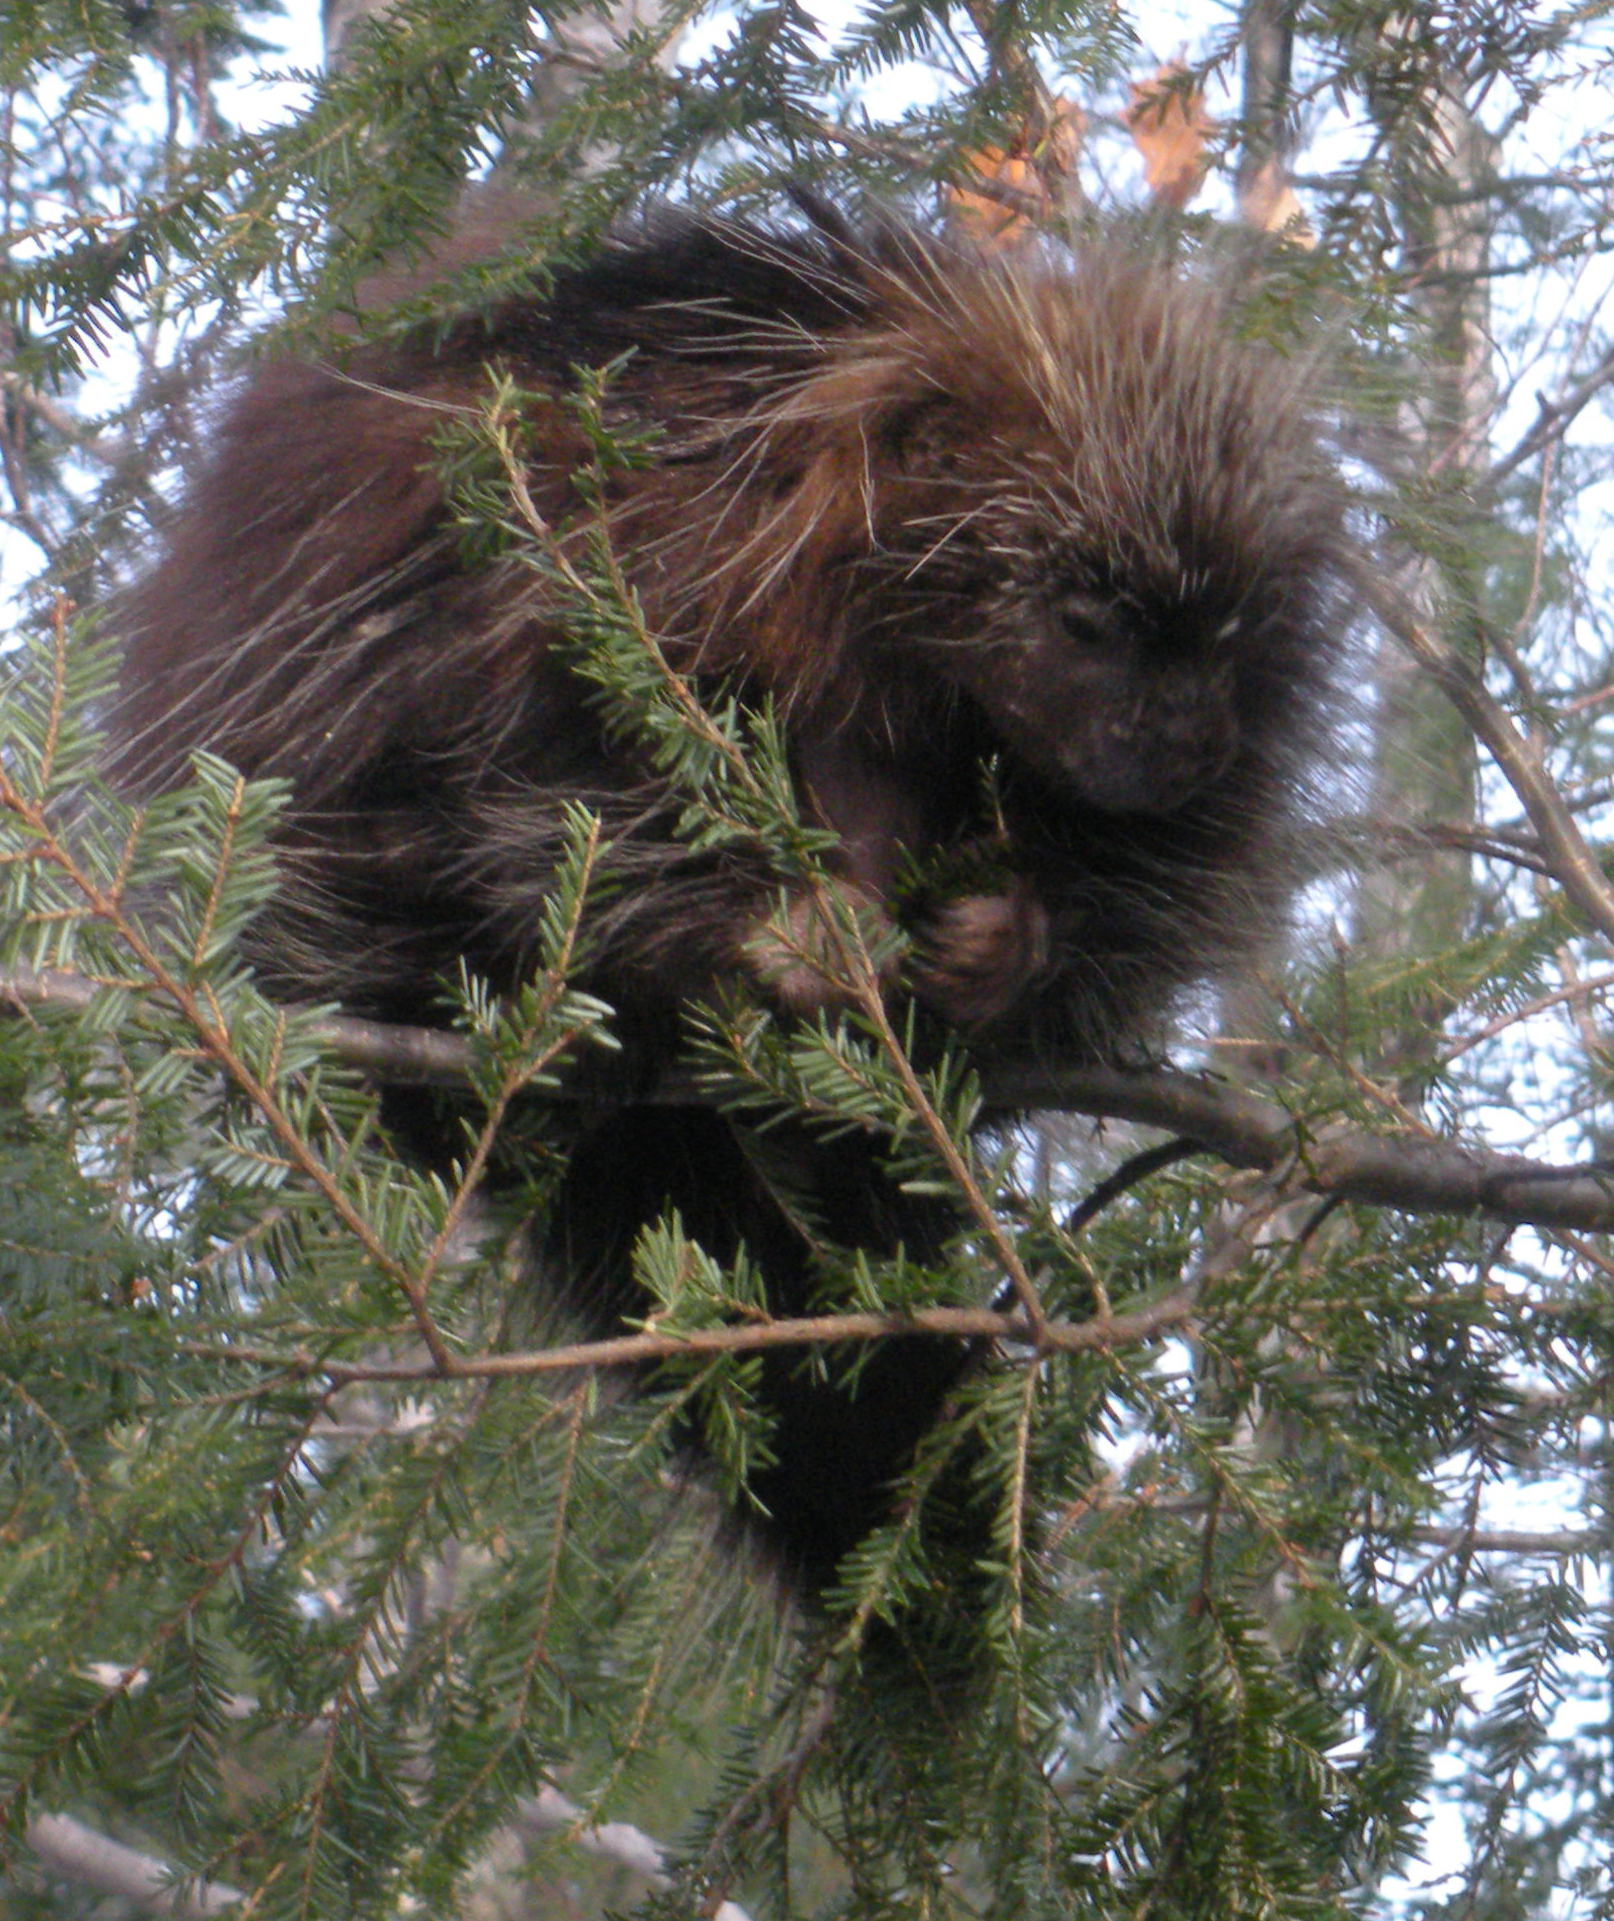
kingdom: Animalia
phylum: Chordata
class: Mammalia
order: Rodentia
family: Erethizontidae
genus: Erethizon
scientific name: Erethizon dorsatus
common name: North american porcupine
